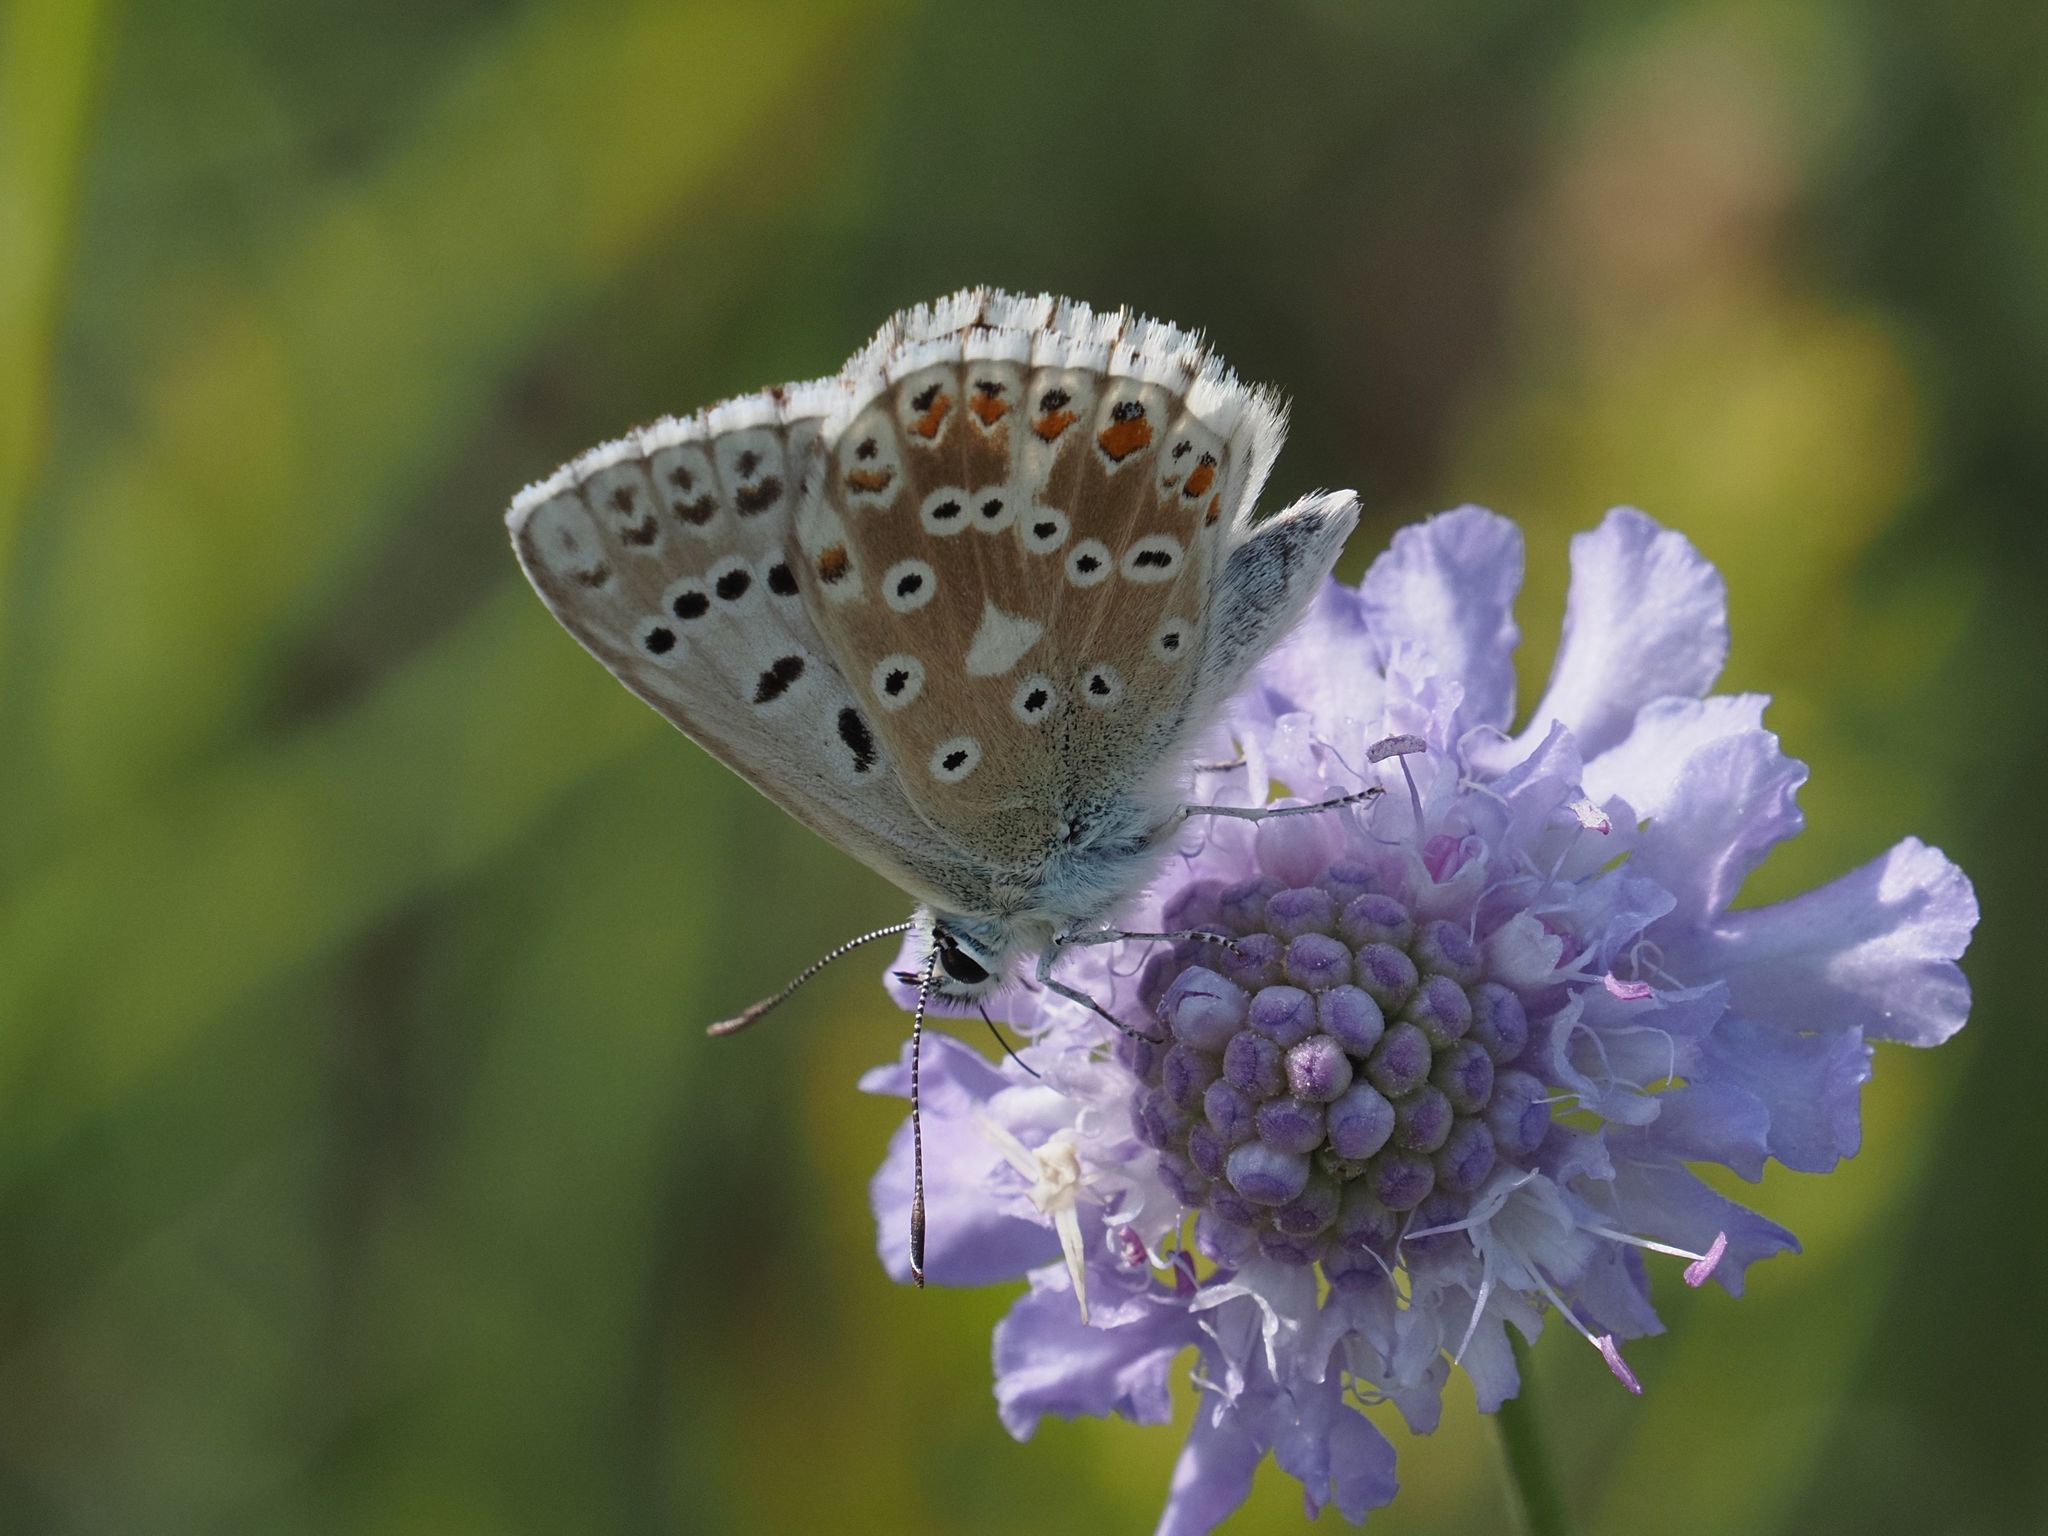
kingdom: Animalia
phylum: Arthropoda
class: Insecta
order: Lepidoptera
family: Lycaenidae
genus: Lysandra
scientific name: Lysandra coridon
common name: Chalkhill blue
